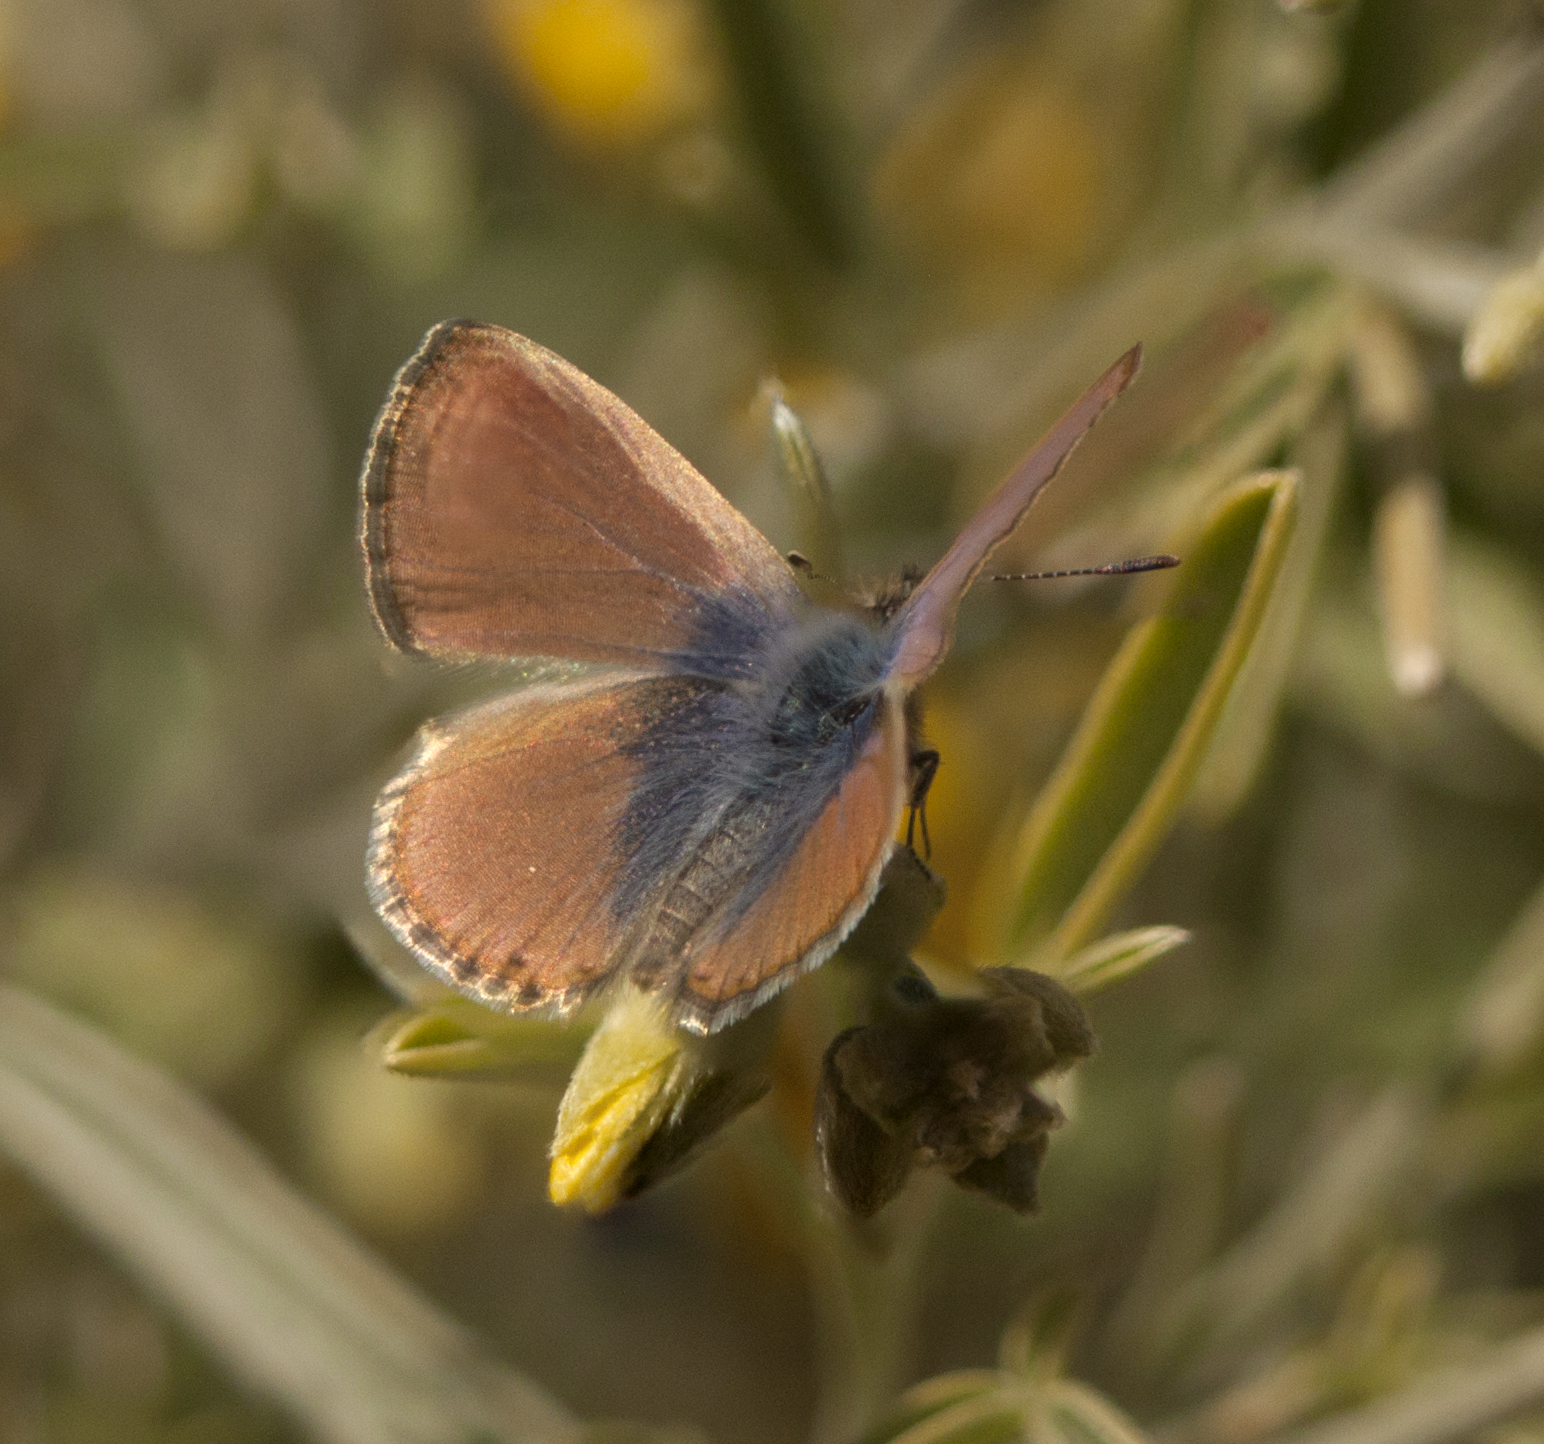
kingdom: Animalia
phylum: Arthropoda
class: Insecta
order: Lepidoptera
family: Lycaenidae
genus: Nacaduba
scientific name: Nacaduba biocellata
